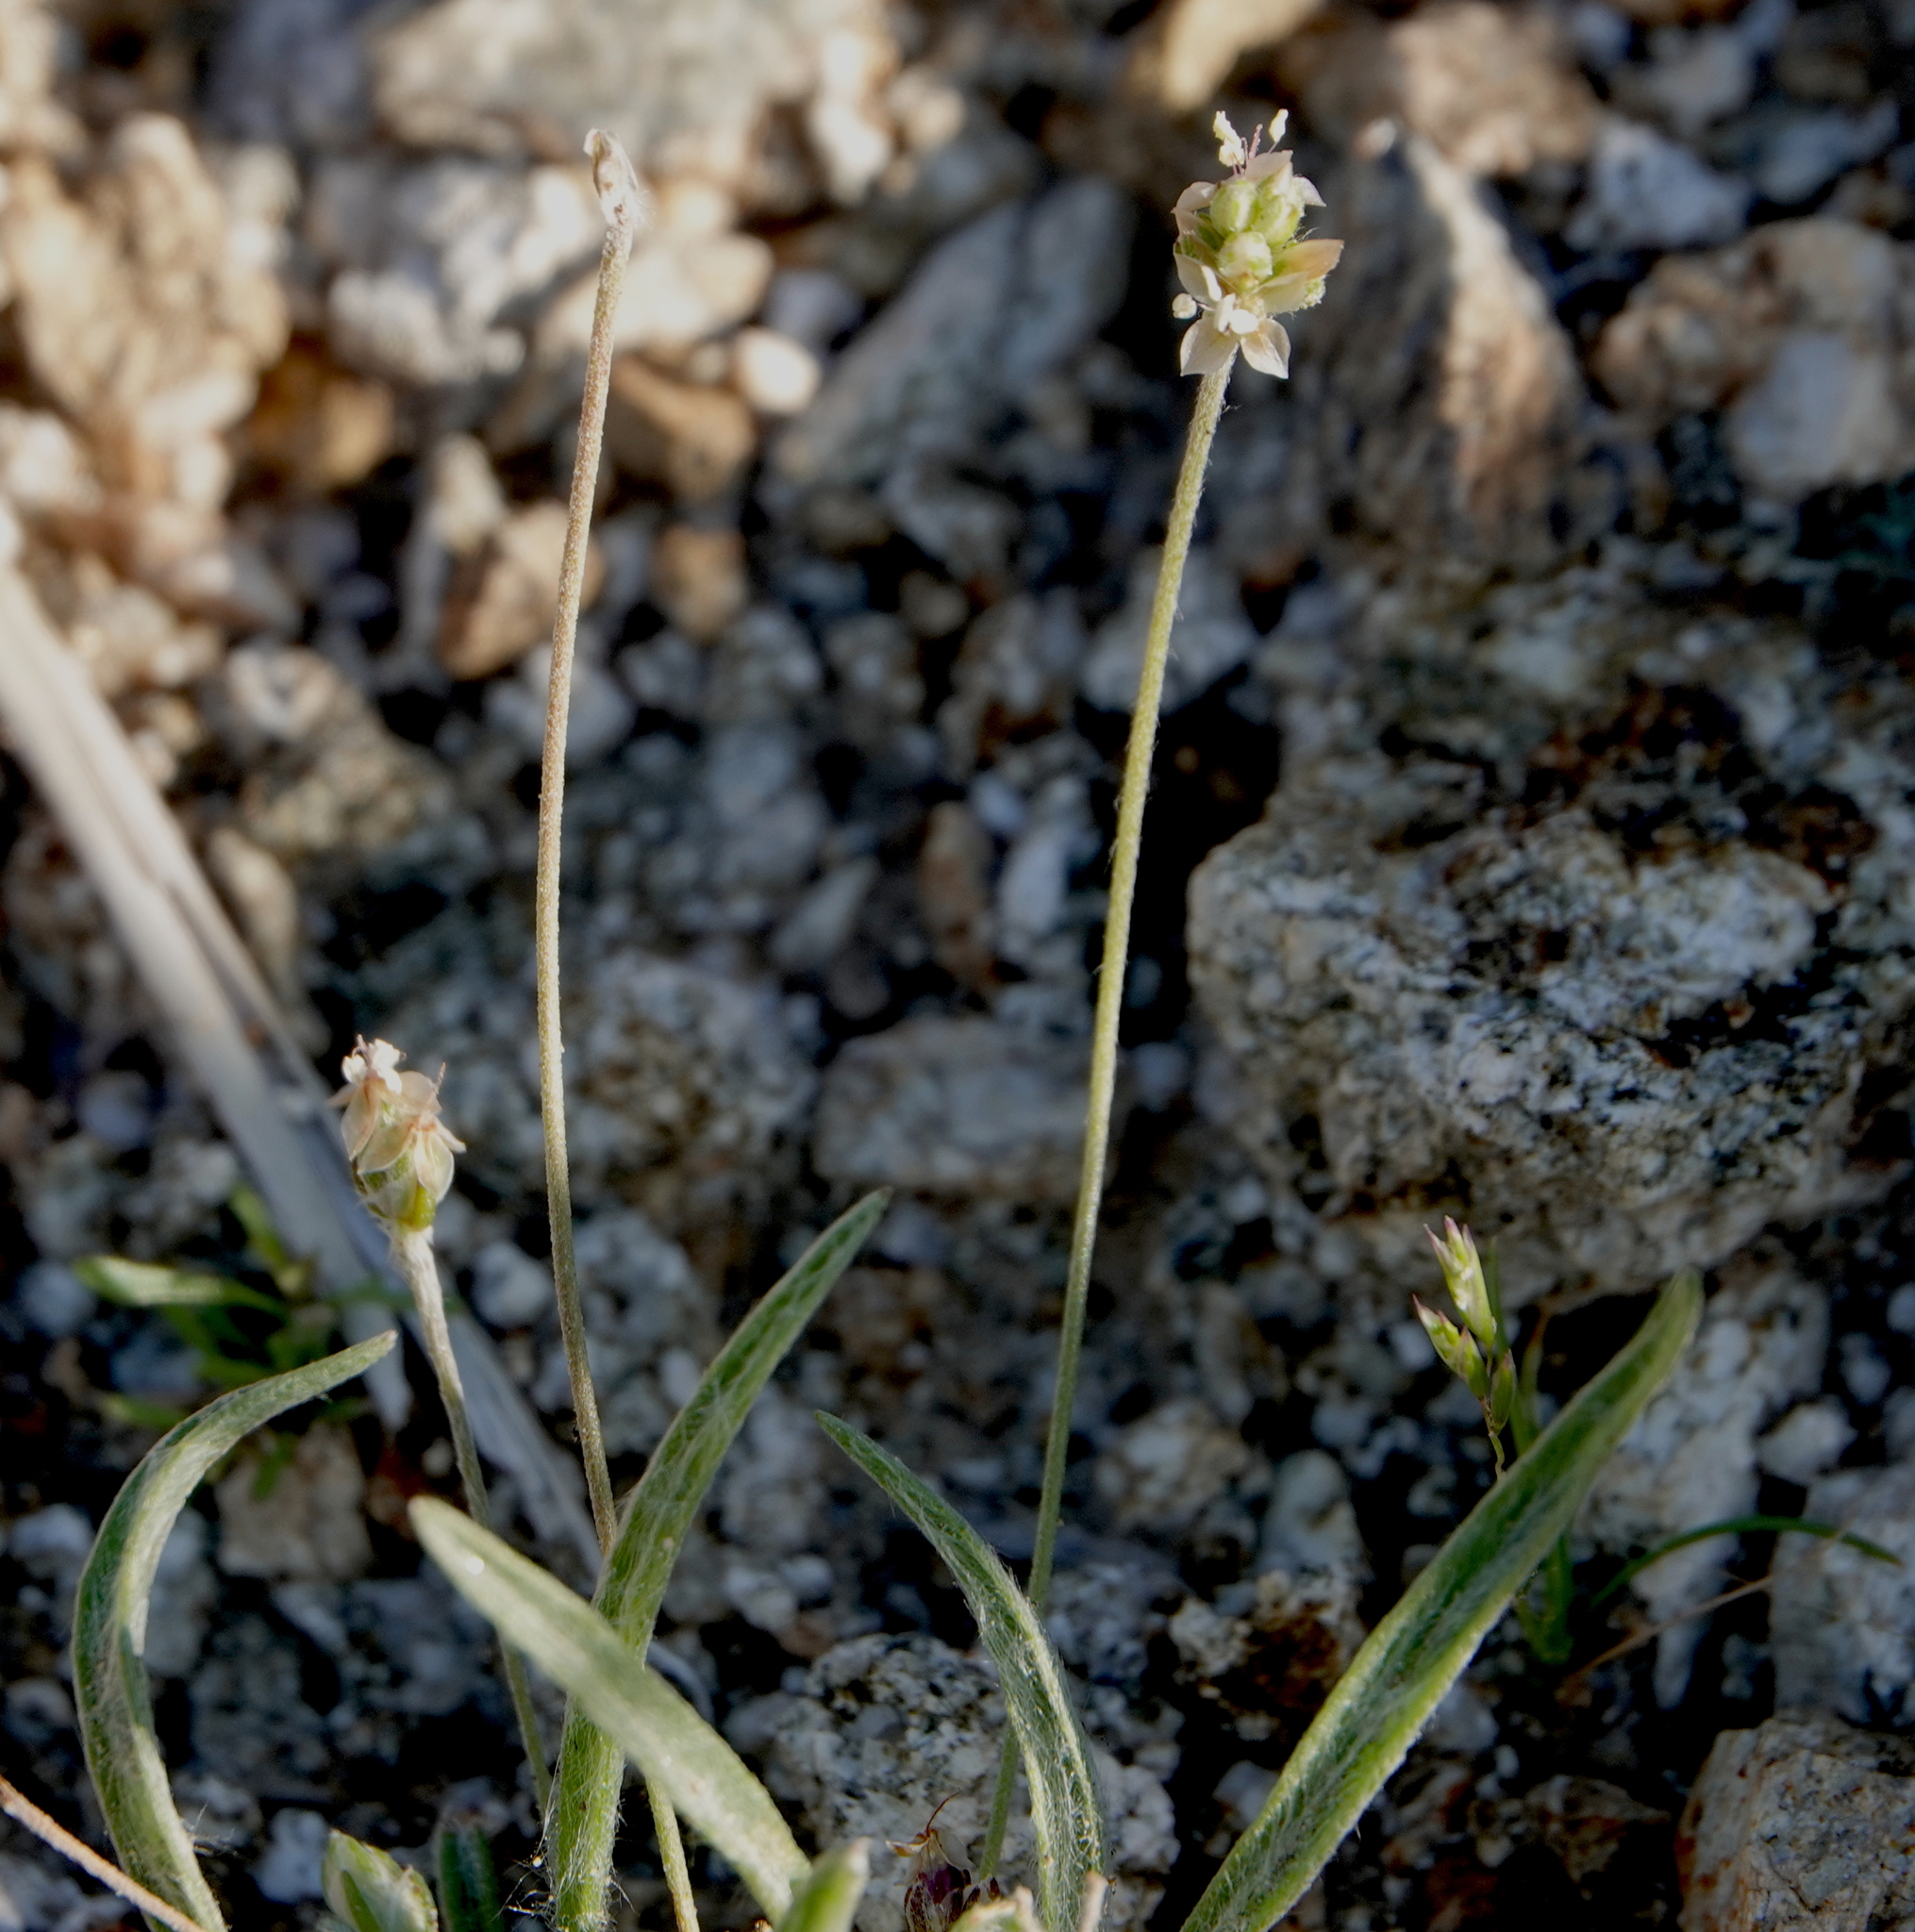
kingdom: Plantae
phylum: Tracheophyta
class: Magnoliopsida
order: Lamiales
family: Plantaginaceae
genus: Plantago
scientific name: Plantago ovata
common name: Blond plantain
